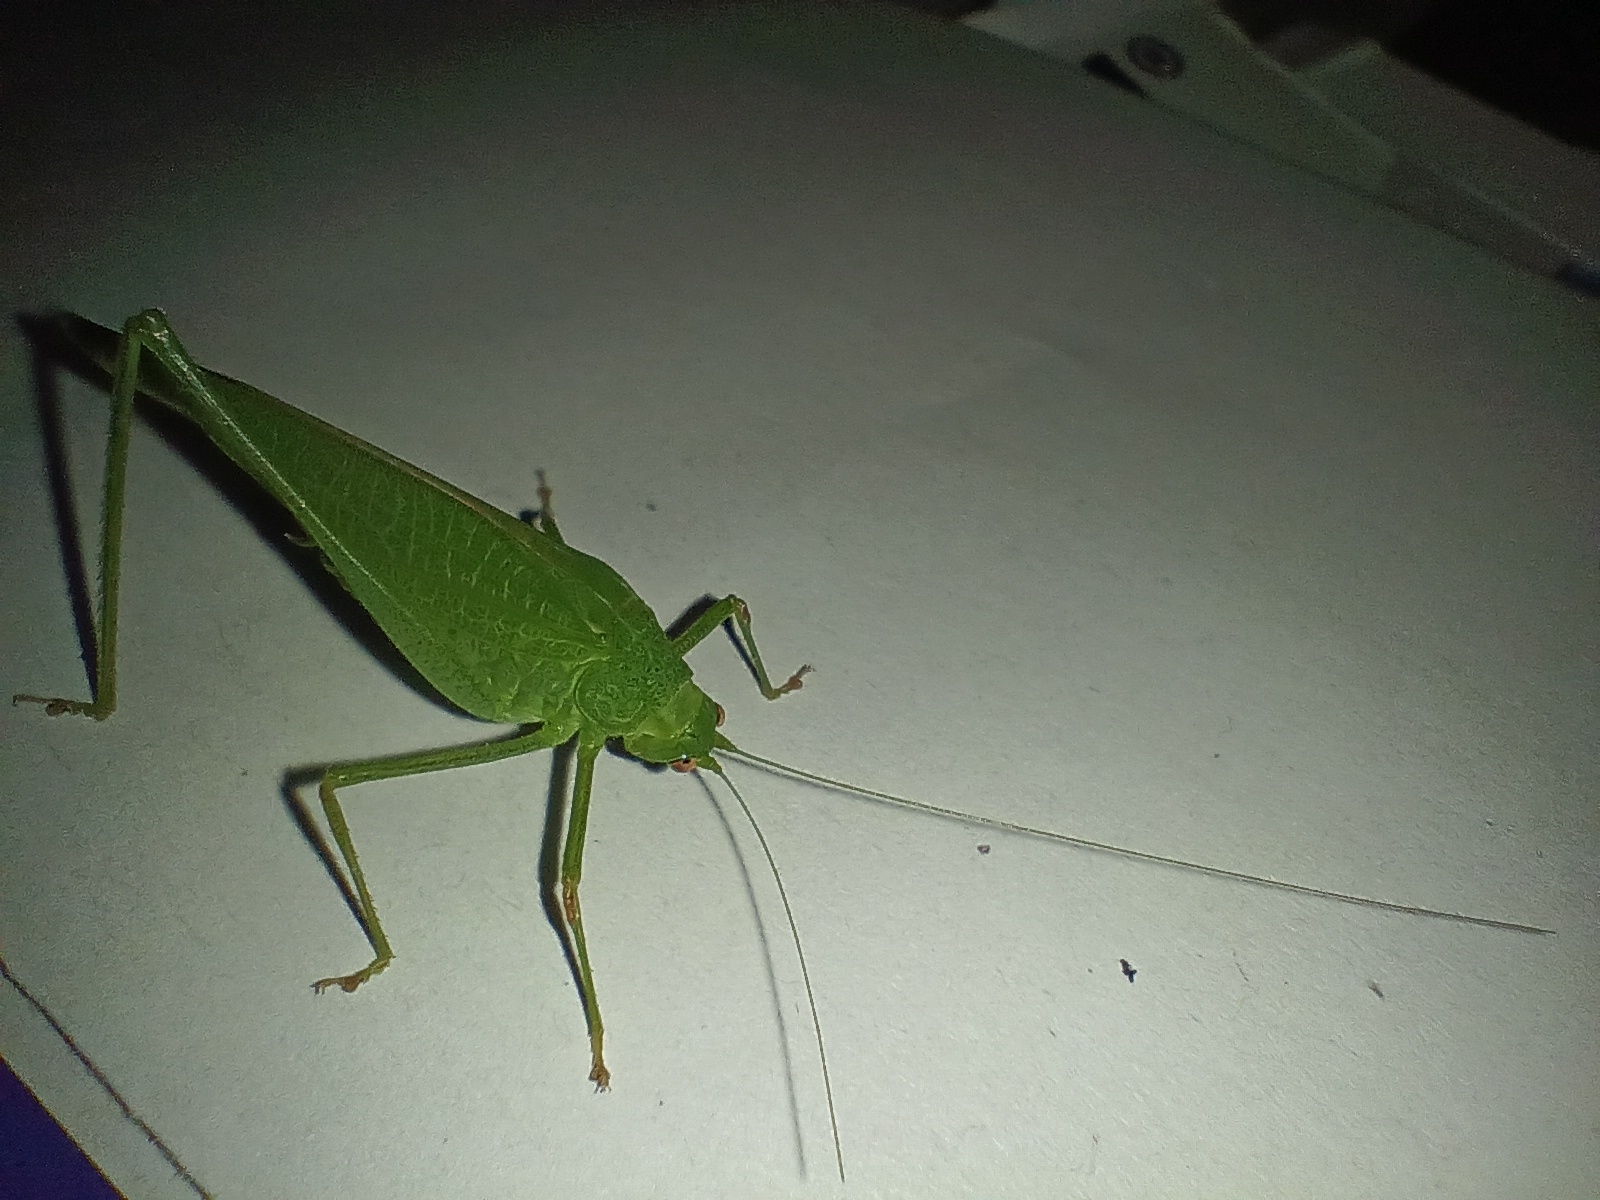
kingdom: Animalia
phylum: Arthropoda
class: Insecta
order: Orthoptera
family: Tettigoniidae
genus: Phaneroptera
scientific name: Phaneroptera nana
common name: Southern sickle bush-cricket
